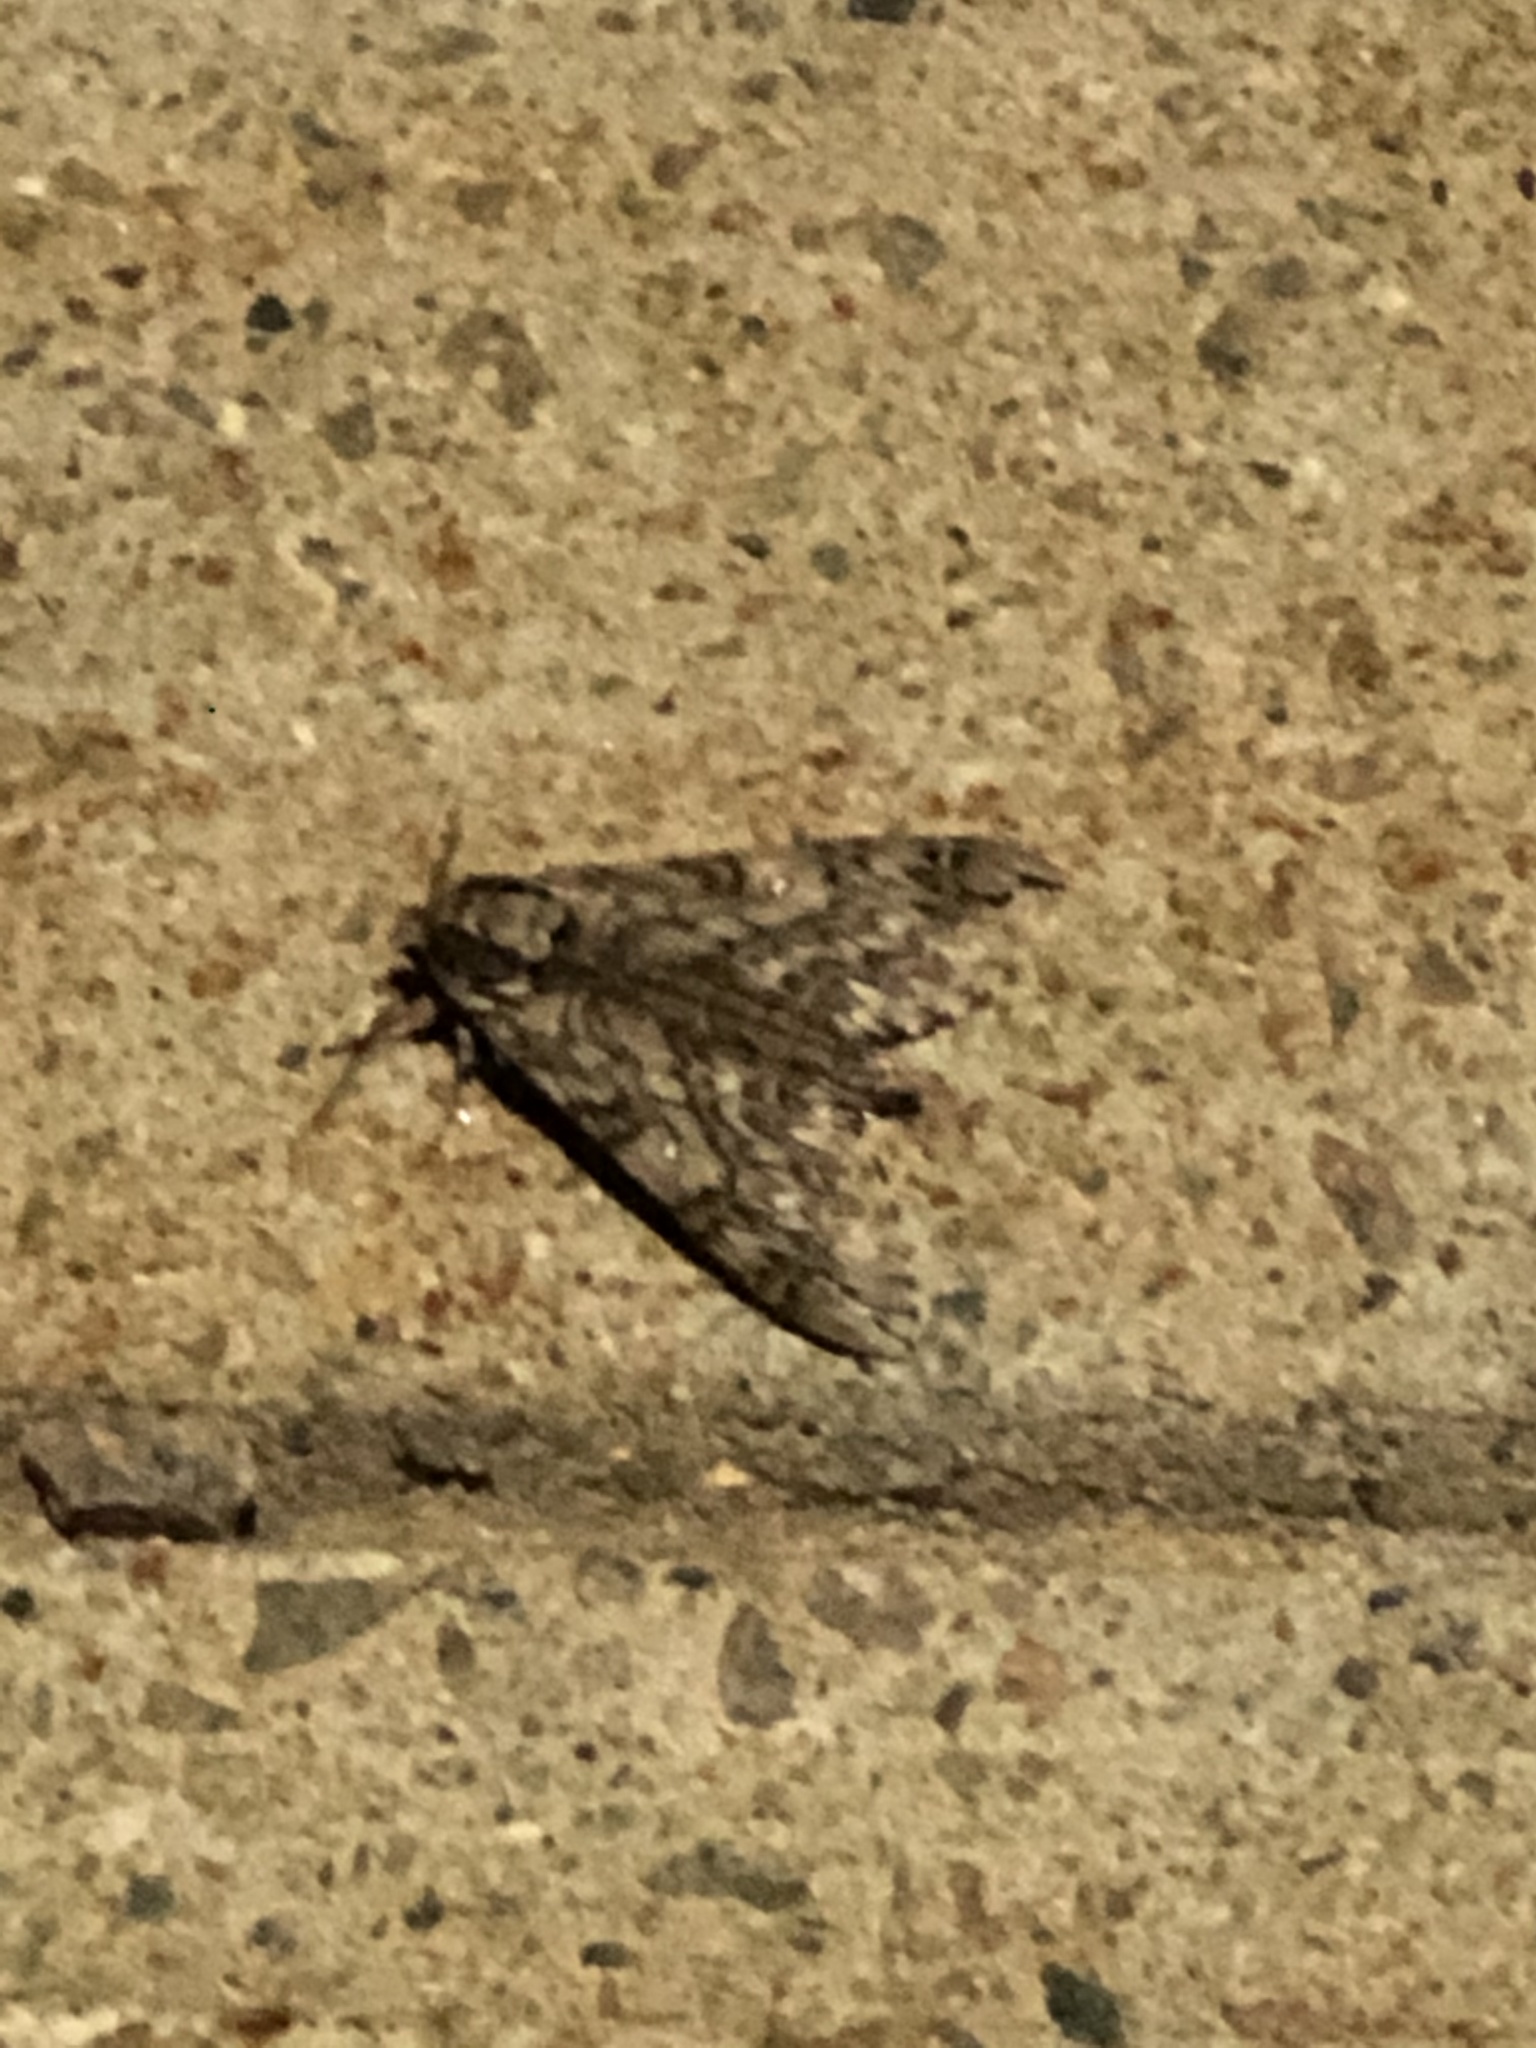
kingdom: Animalia
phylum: Arthropoda
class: Insecta
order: Lepidoptera
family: Sphingidae
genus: Ceratomia
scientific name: Ceratomia undulosa
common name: Waved sphinx
